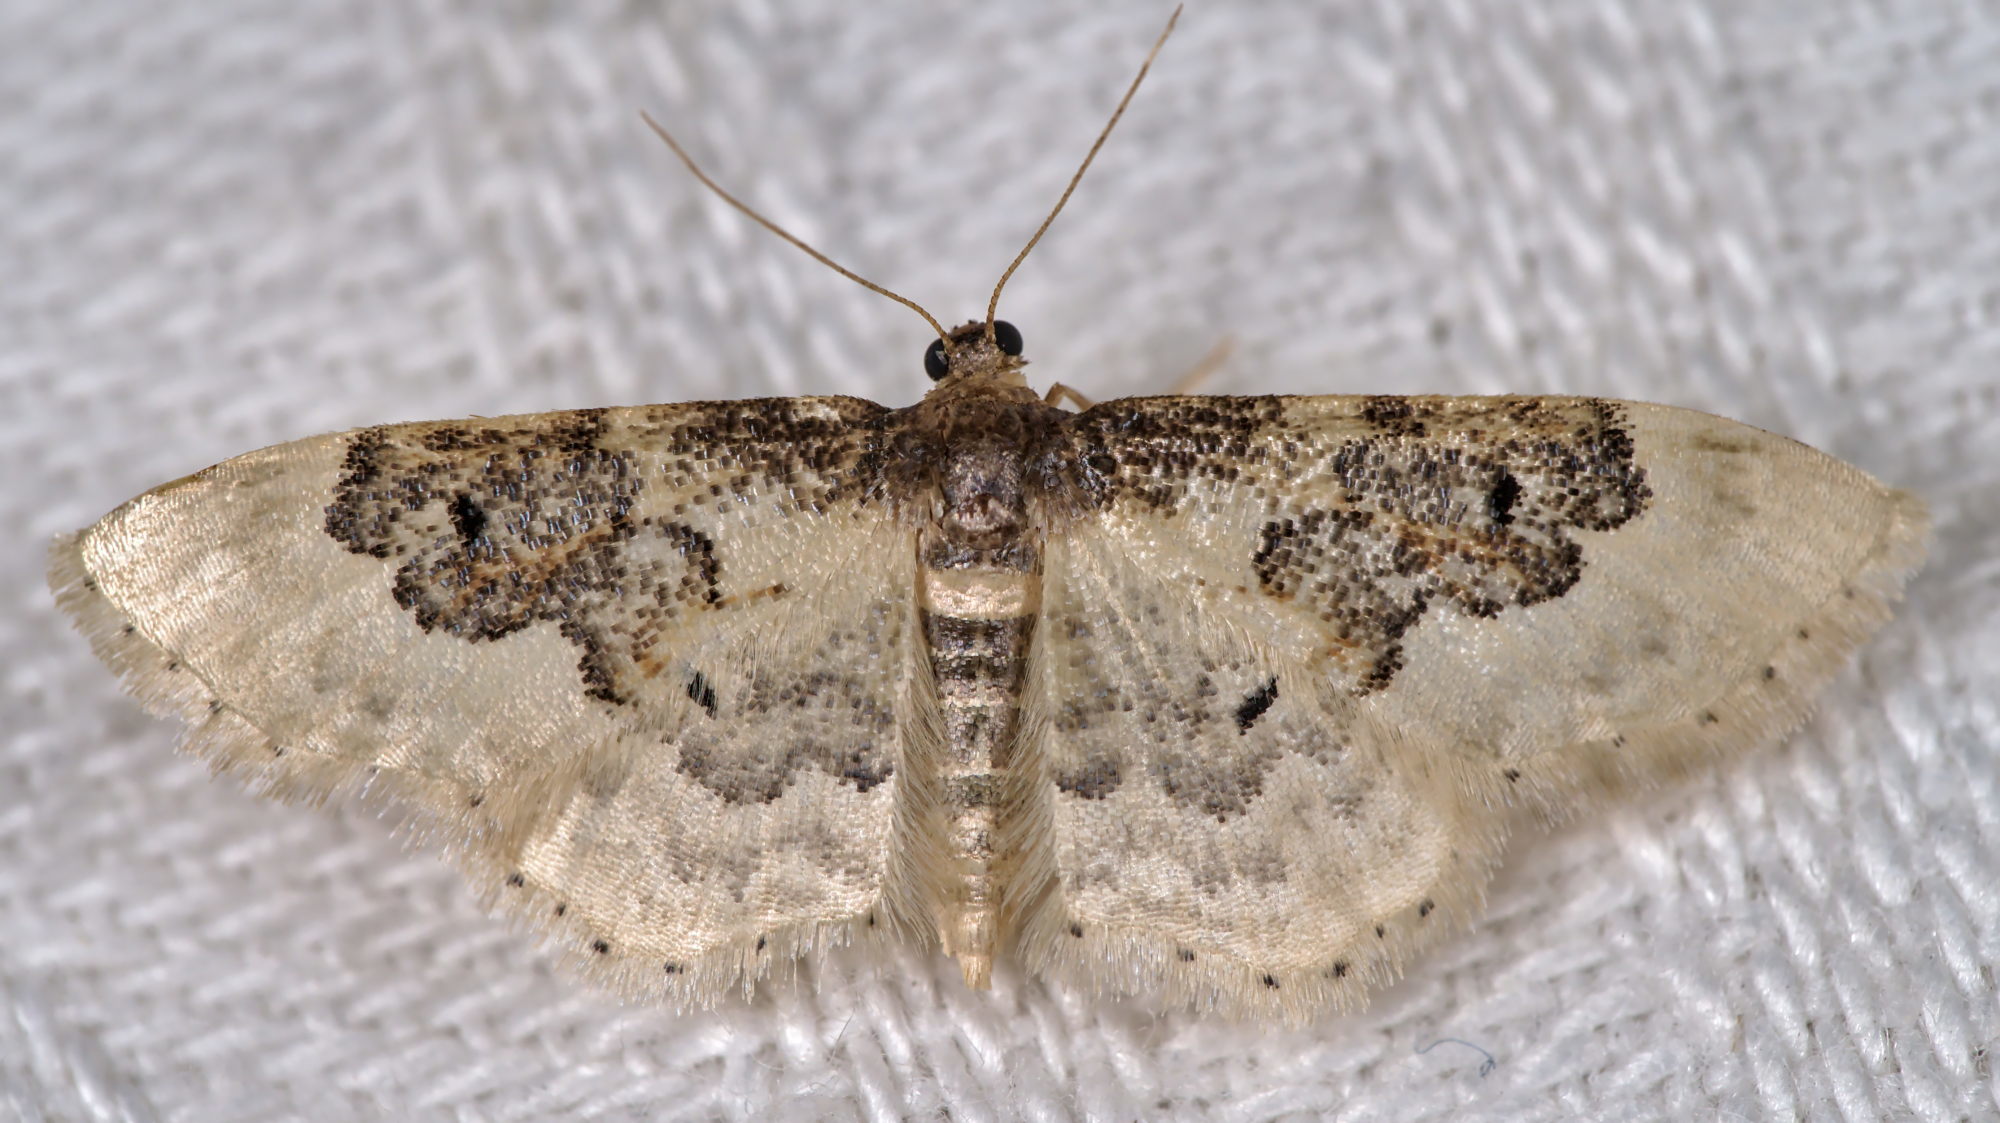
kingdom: Animalia
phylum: Arthropoda
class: Insecta
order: Lepidoptera
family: Geometridae
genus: Idaea
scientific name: Idaea rusticata
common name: Least carpet
